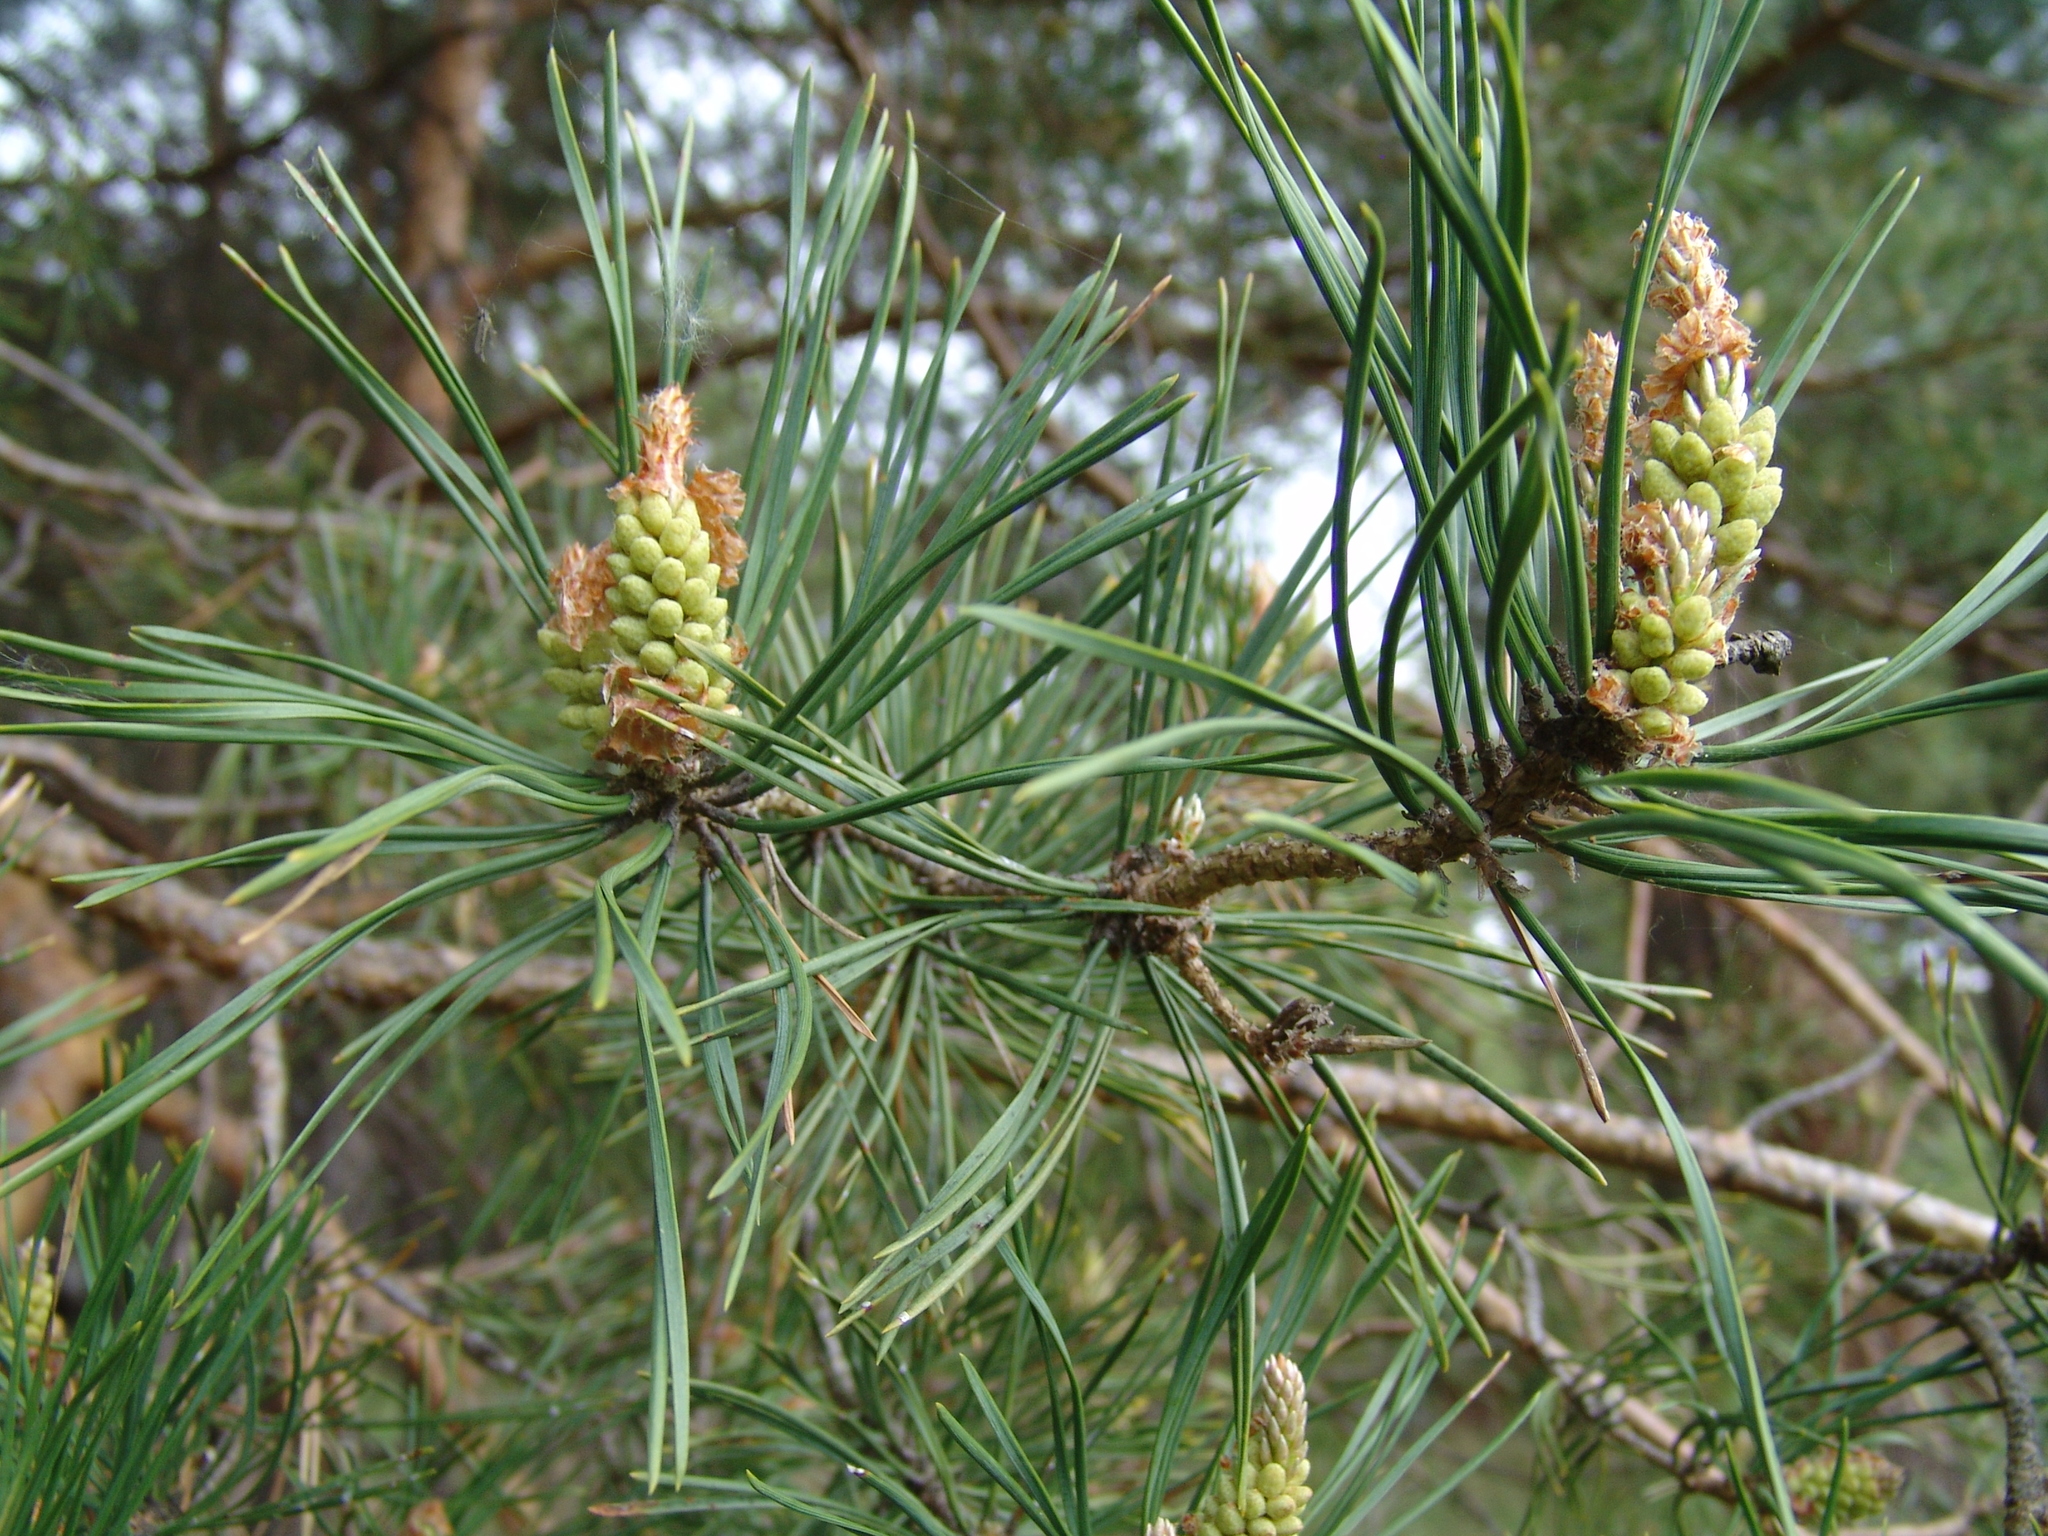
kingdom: Plantae
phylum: Tracheophyta
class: Pinopsida
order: Pinales
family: Pinaceae
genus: Pinus
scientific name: Pinus sylvestris
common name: Scots pine
